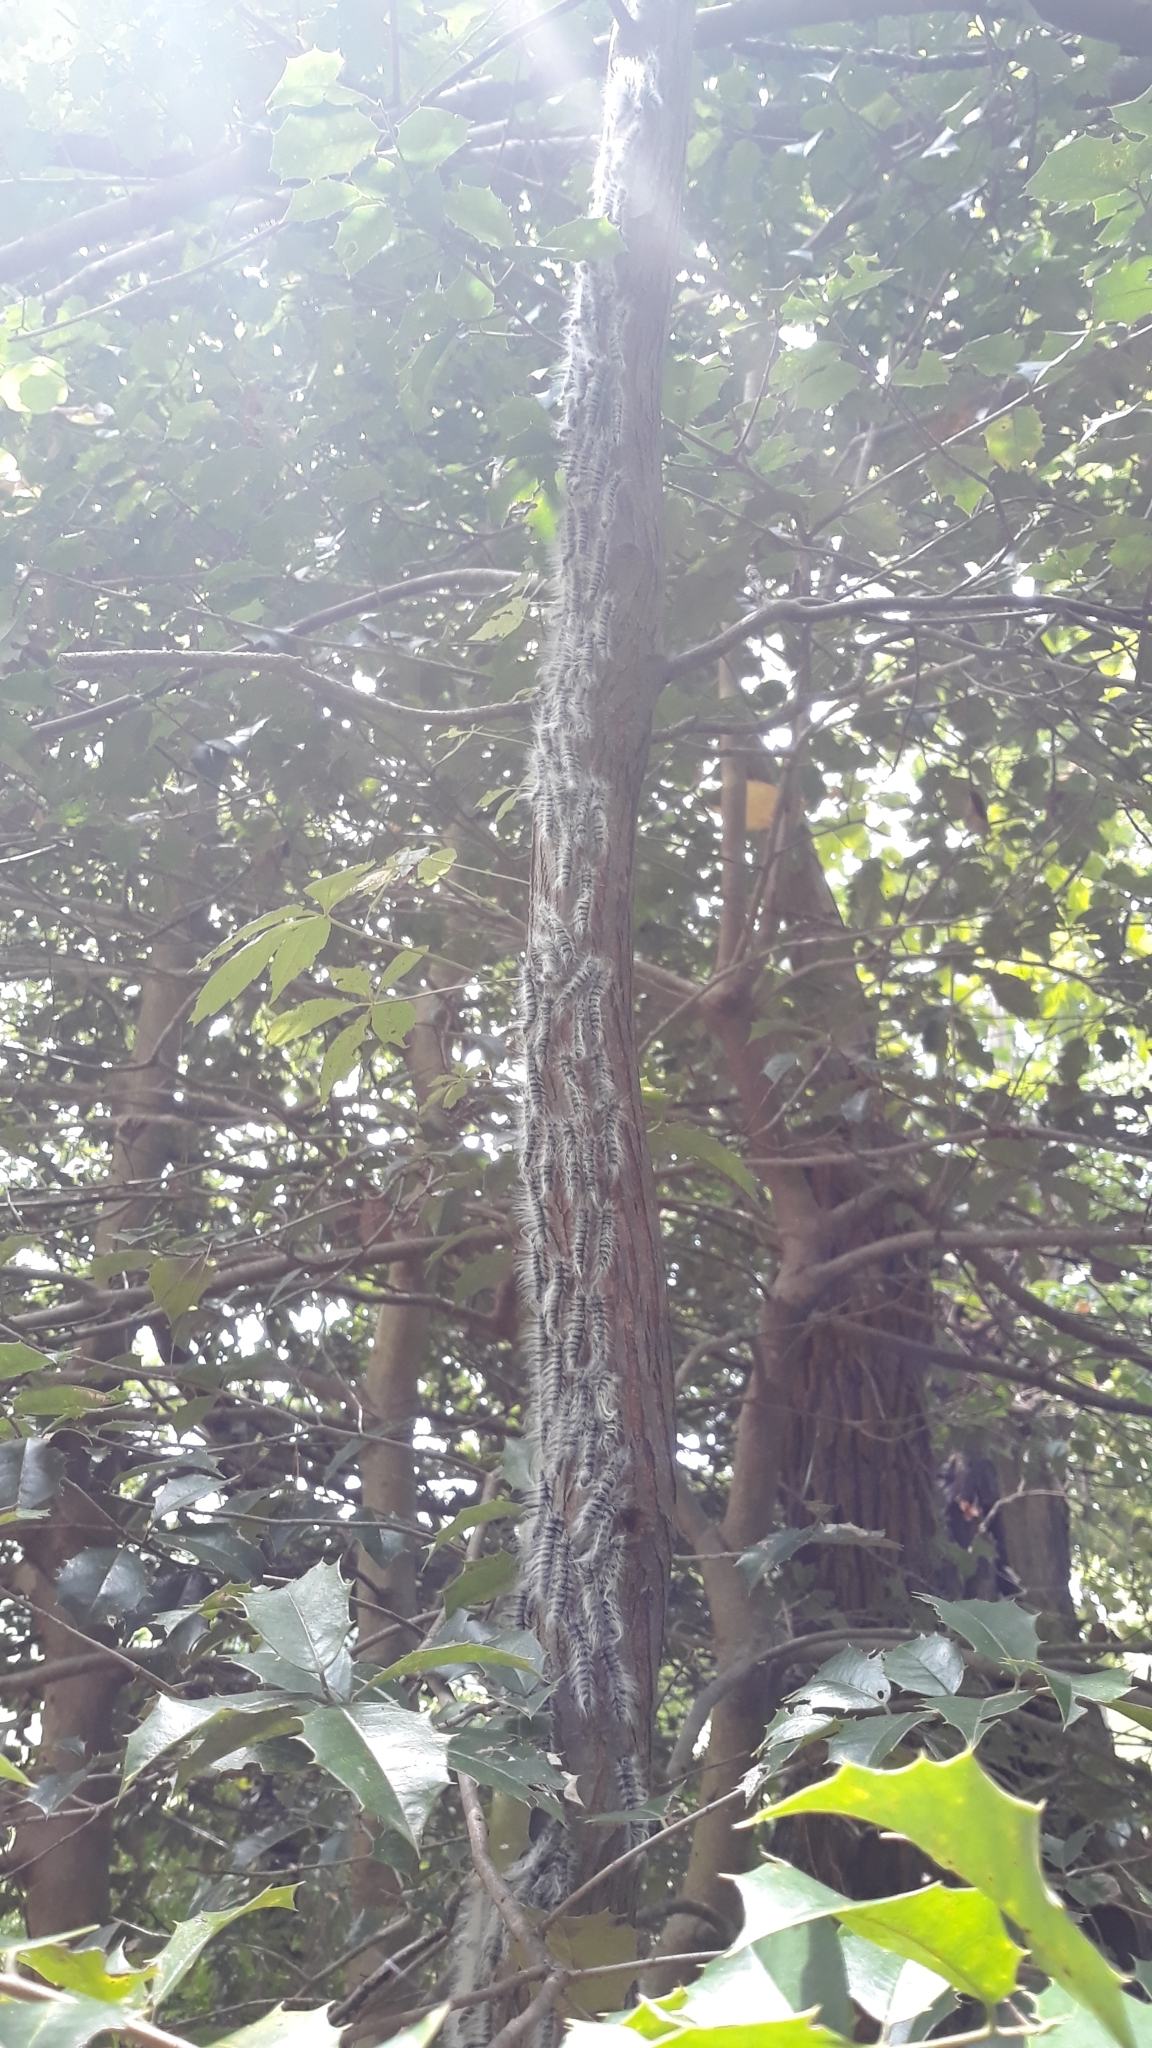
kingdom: Animalia
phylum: Arthropoda
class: Insecta
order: Lepidoptera
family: Notodontidae
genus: Datana
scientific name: Datana integerrima
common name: Walnut caterpillar
